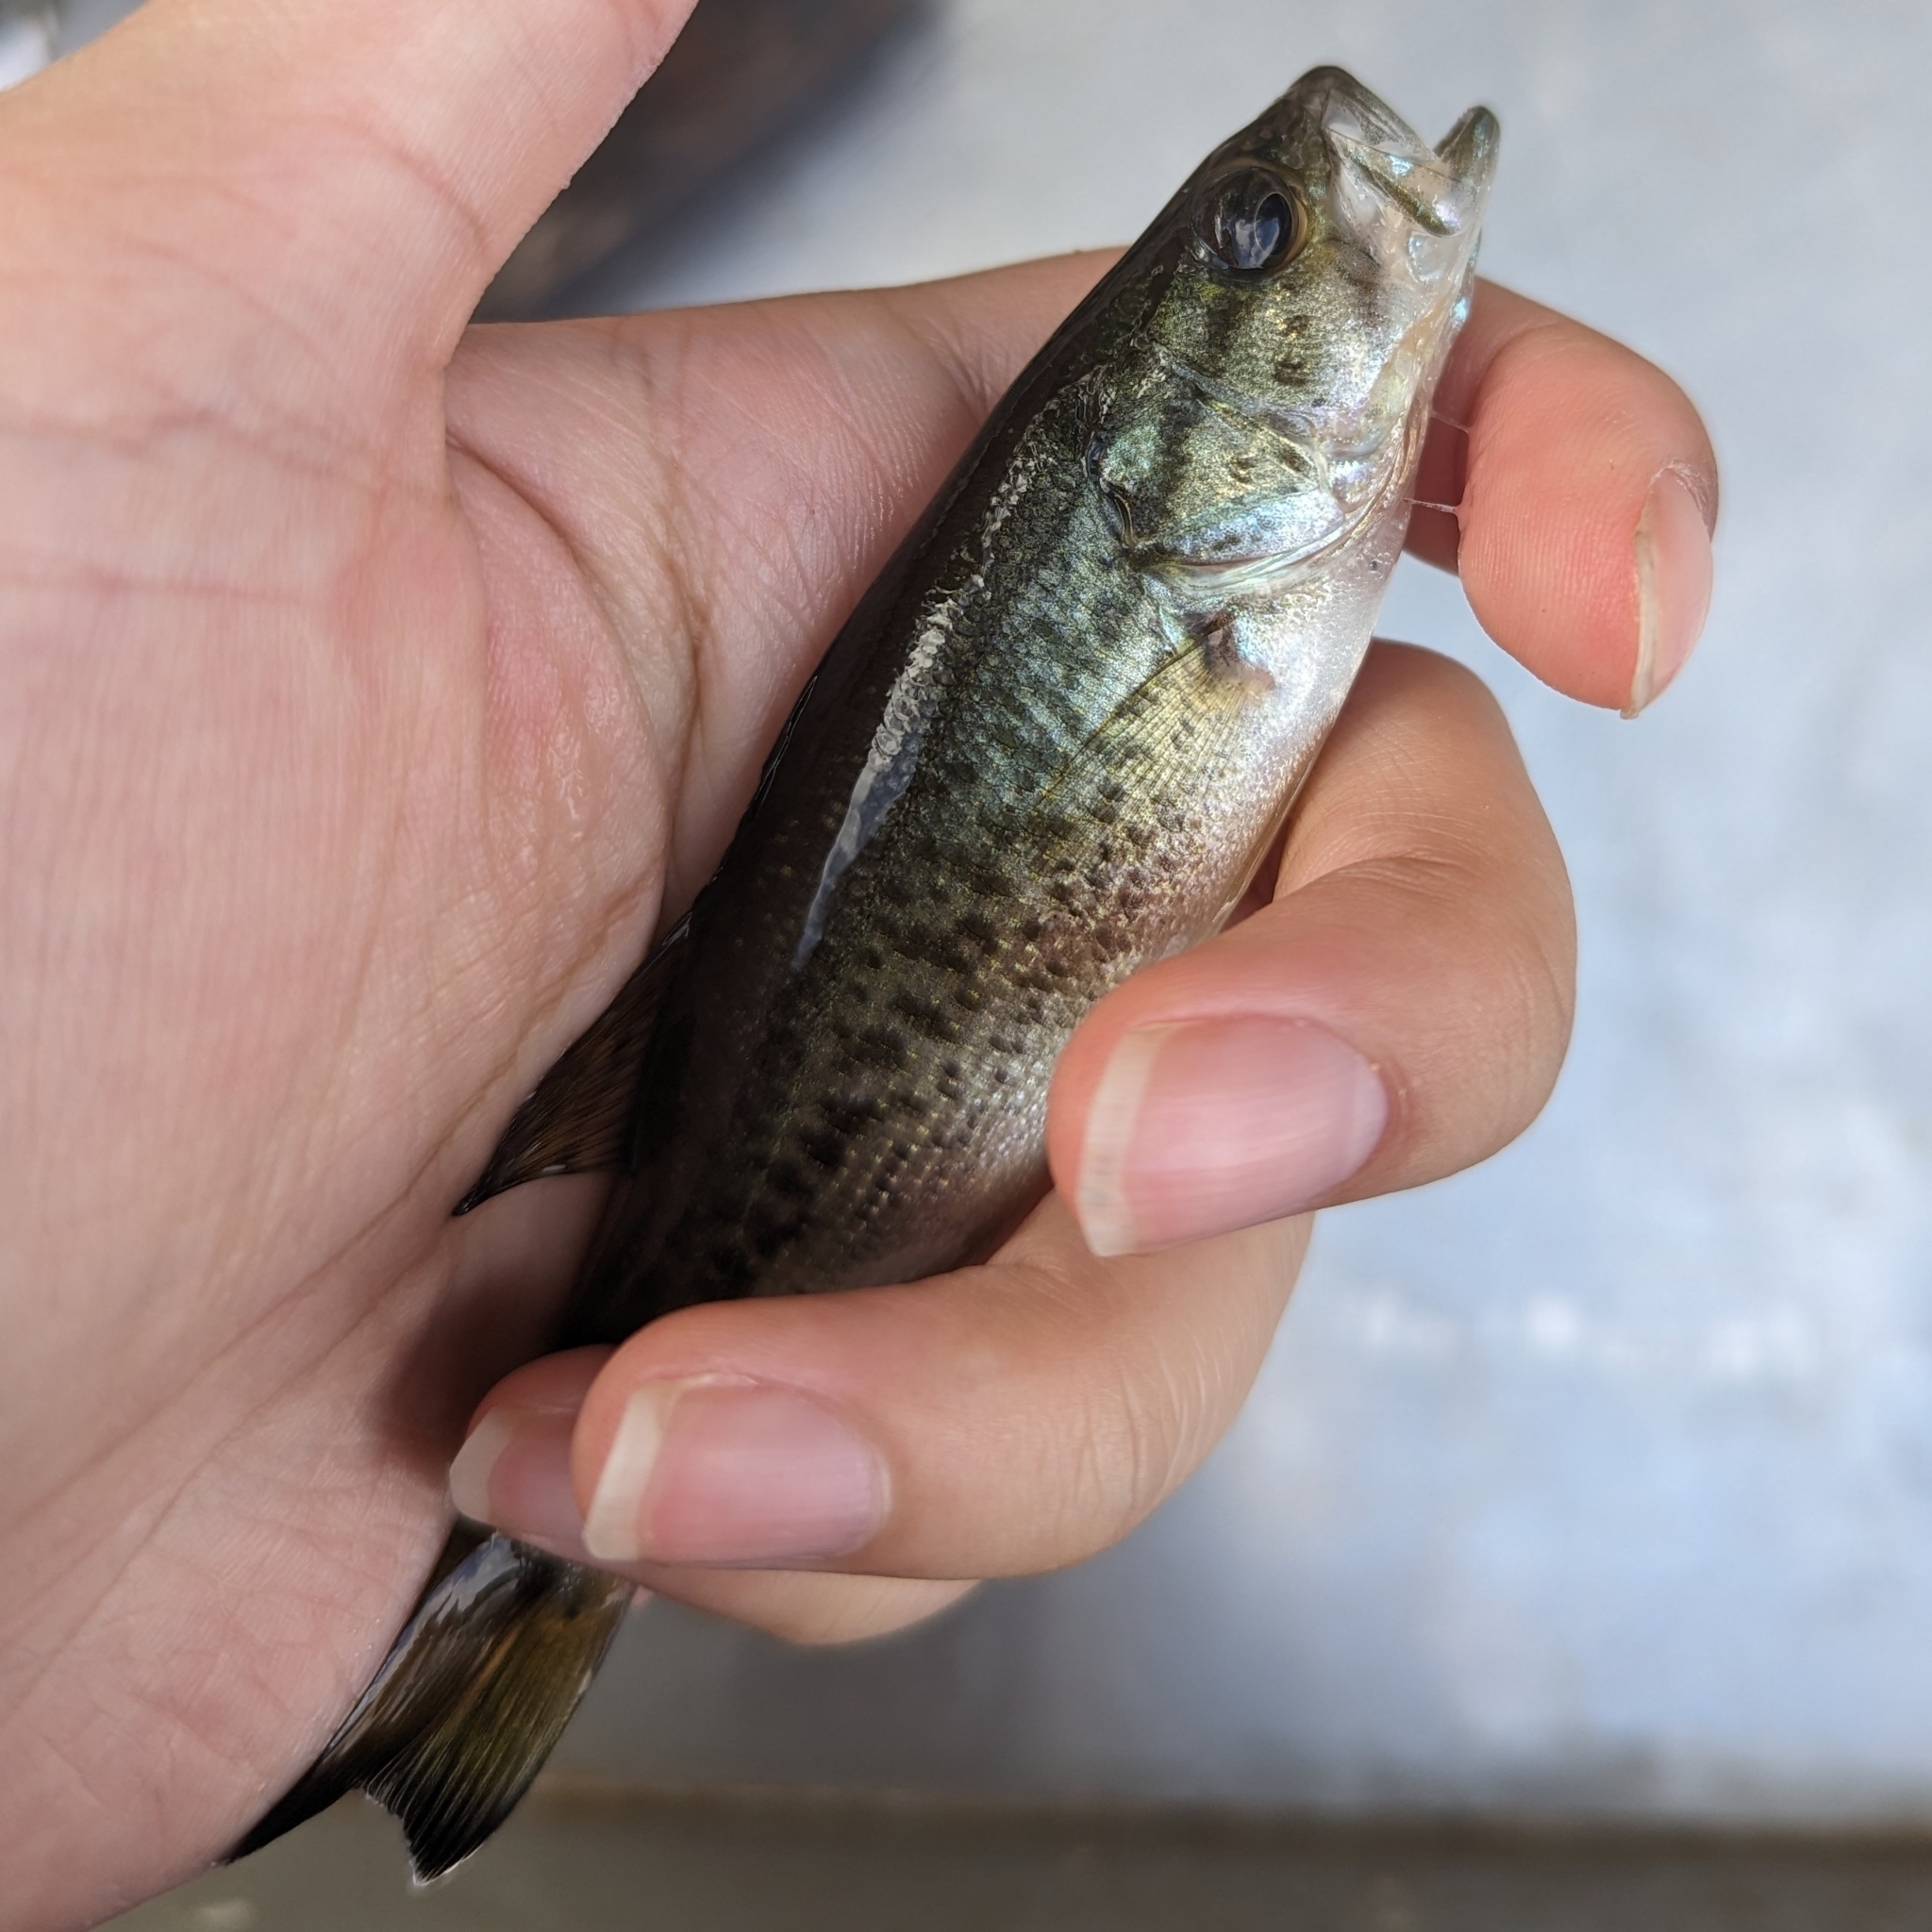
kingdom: Animalia
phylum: Chordata
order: Perciformes
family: Centrarchidae
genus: Micropterus
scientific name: Micropterus
